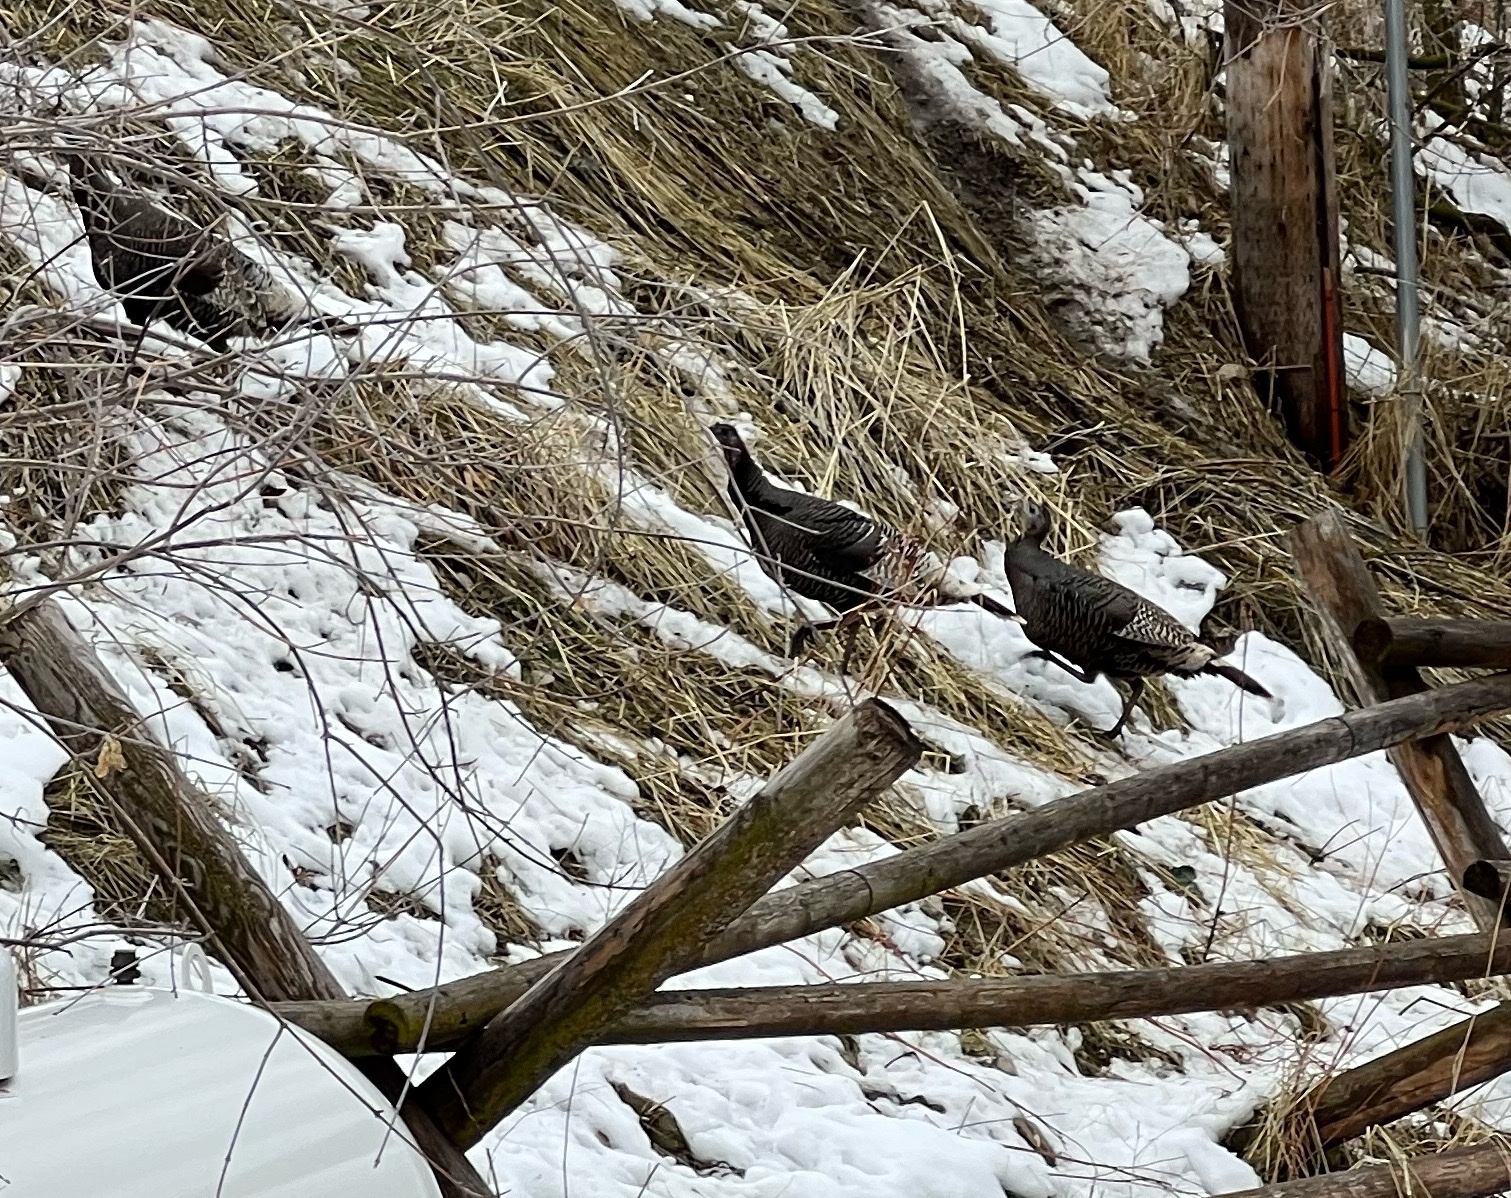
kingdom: Animalia
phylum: Chordata
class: Aves
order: Galliformes
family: Phasianidae
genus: Meleagris
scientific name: Meleagris gallopavo
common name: Wild turkey
